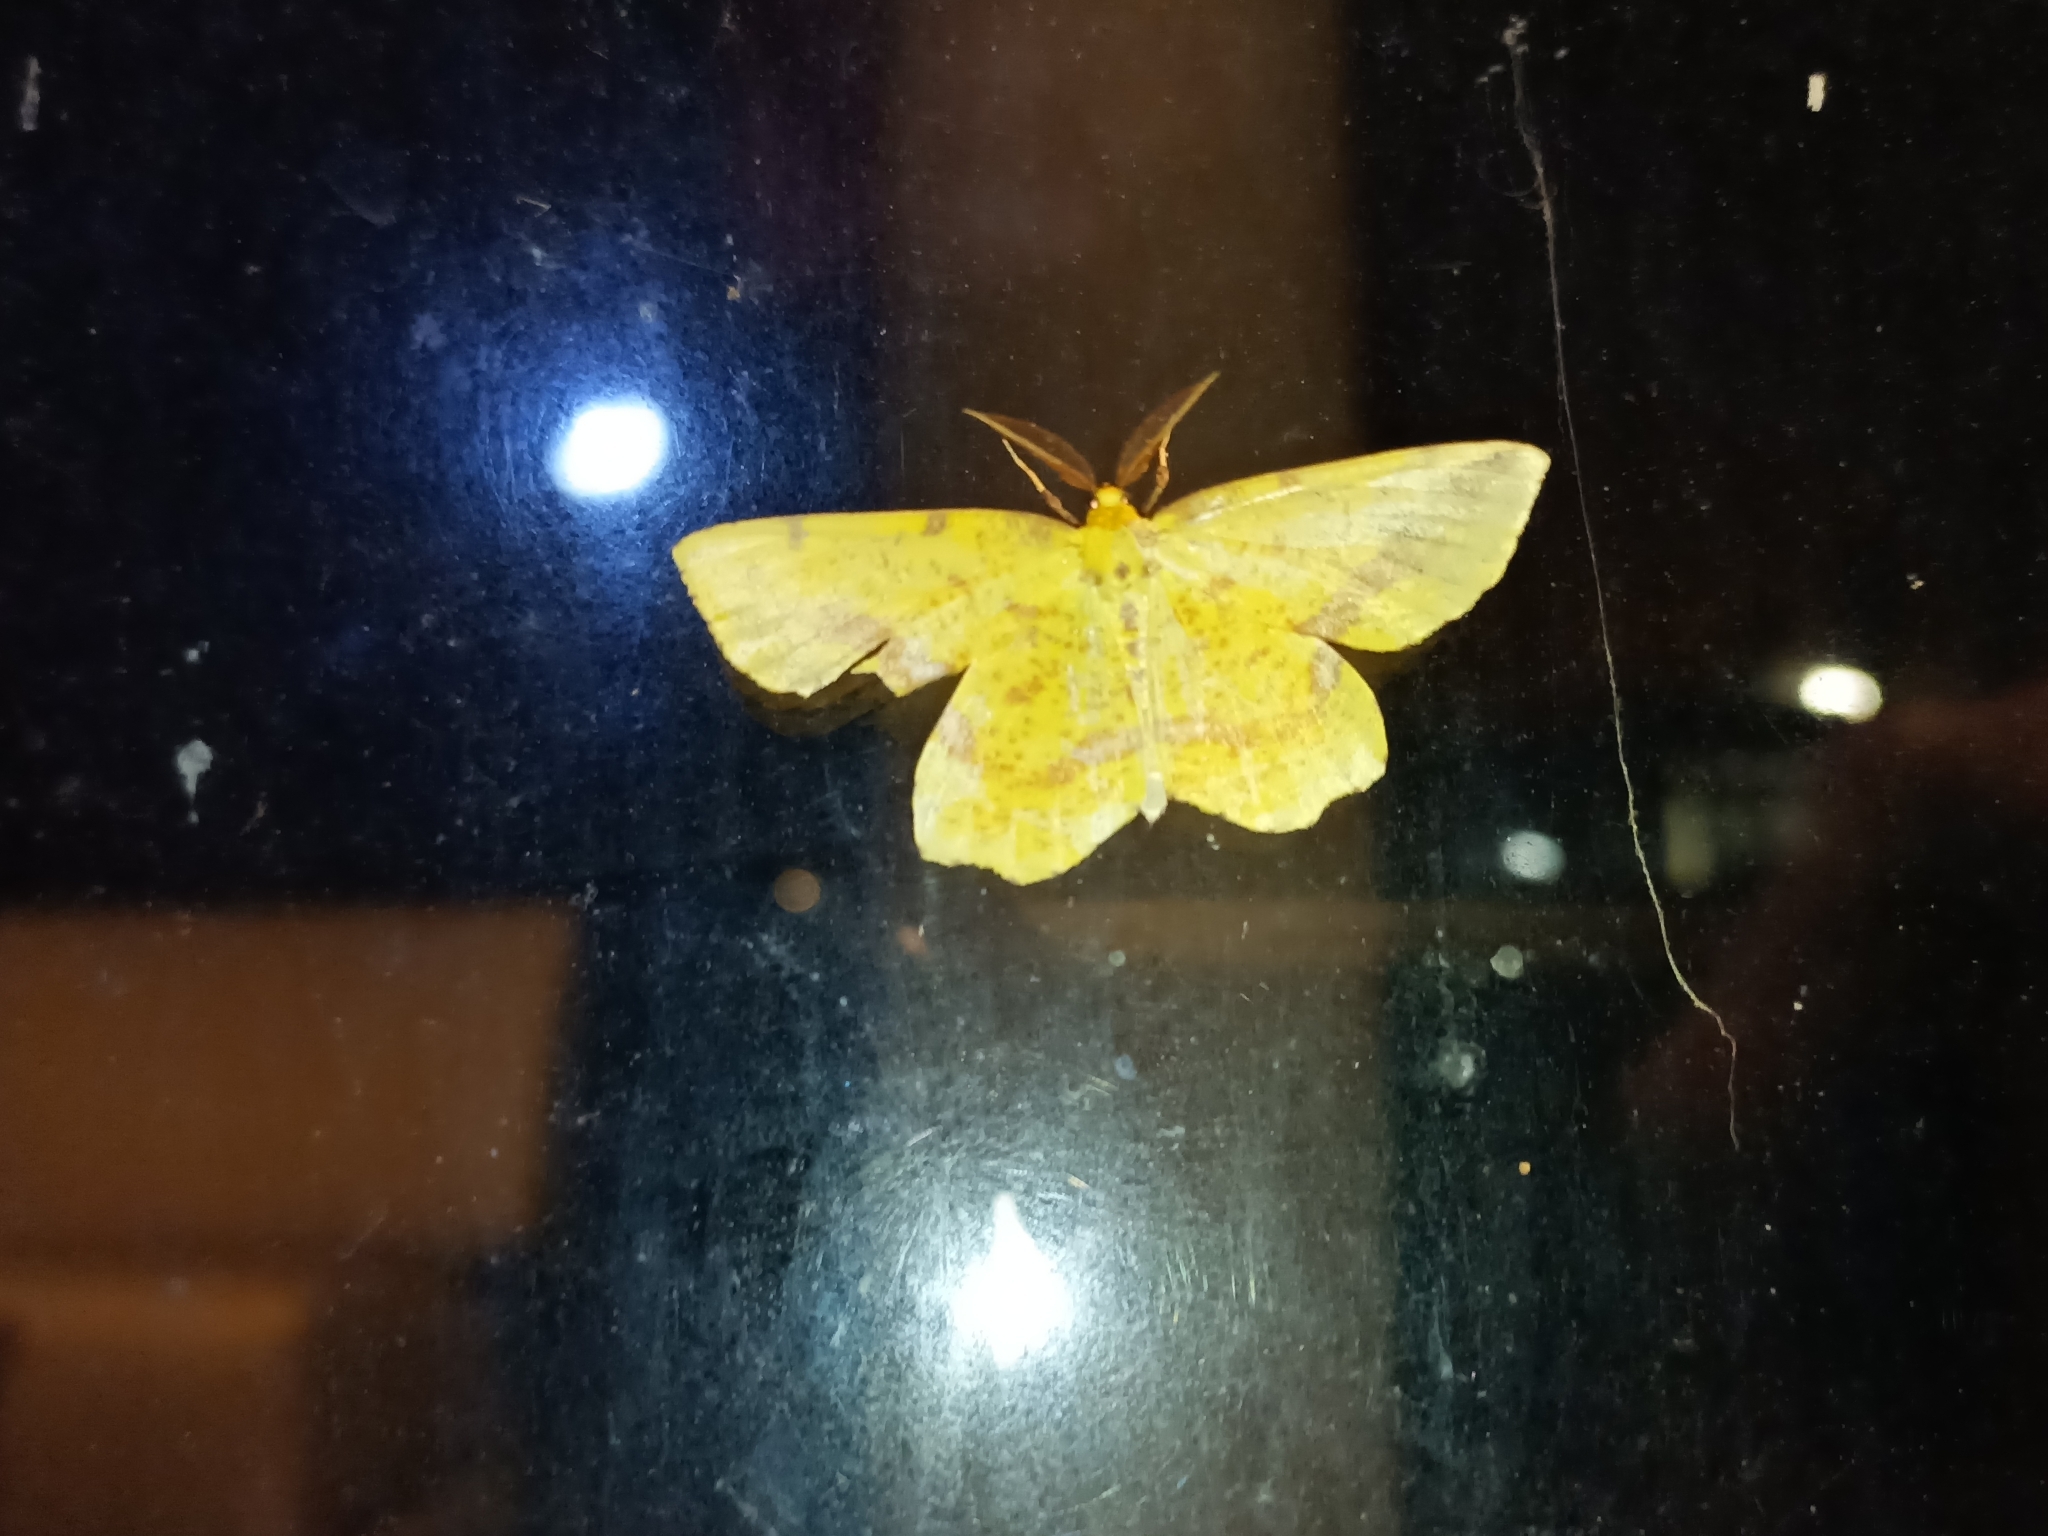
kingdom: Animalia
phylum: Arthropoda
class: Insecta
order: Lepidoptera
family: Geometridae
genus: Xanthotype
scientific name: Xanthotype
